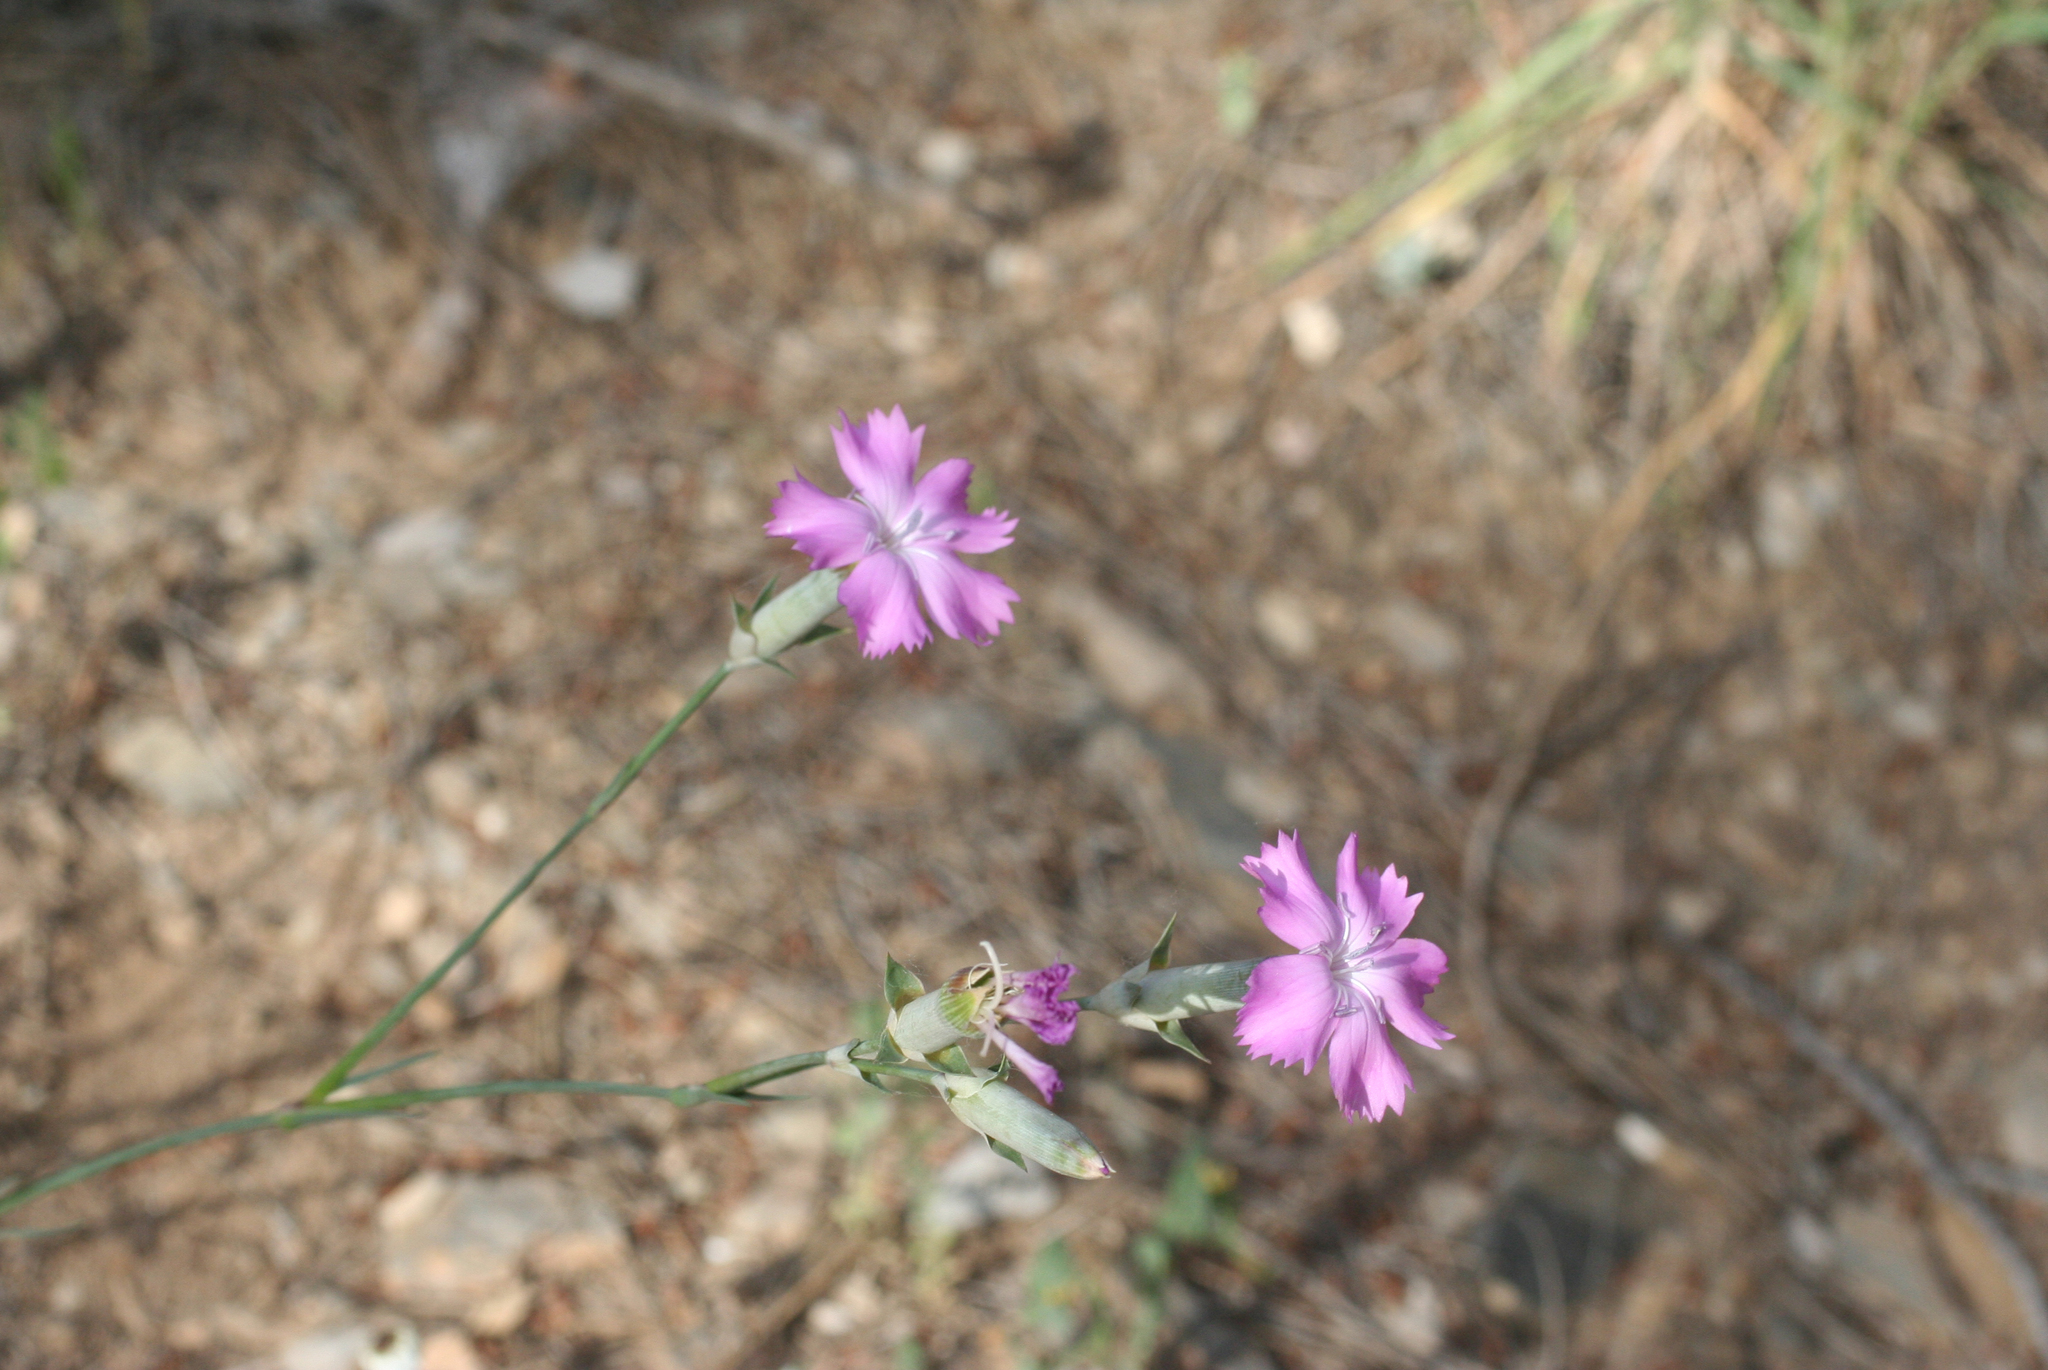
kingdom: Plantae
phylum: Tracheophyta
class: Magnoliopsida
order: Caryophyllales
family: Caryophyllaceae
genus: Dianthus
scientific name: Dianthus sylvestris
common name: Wood pink
